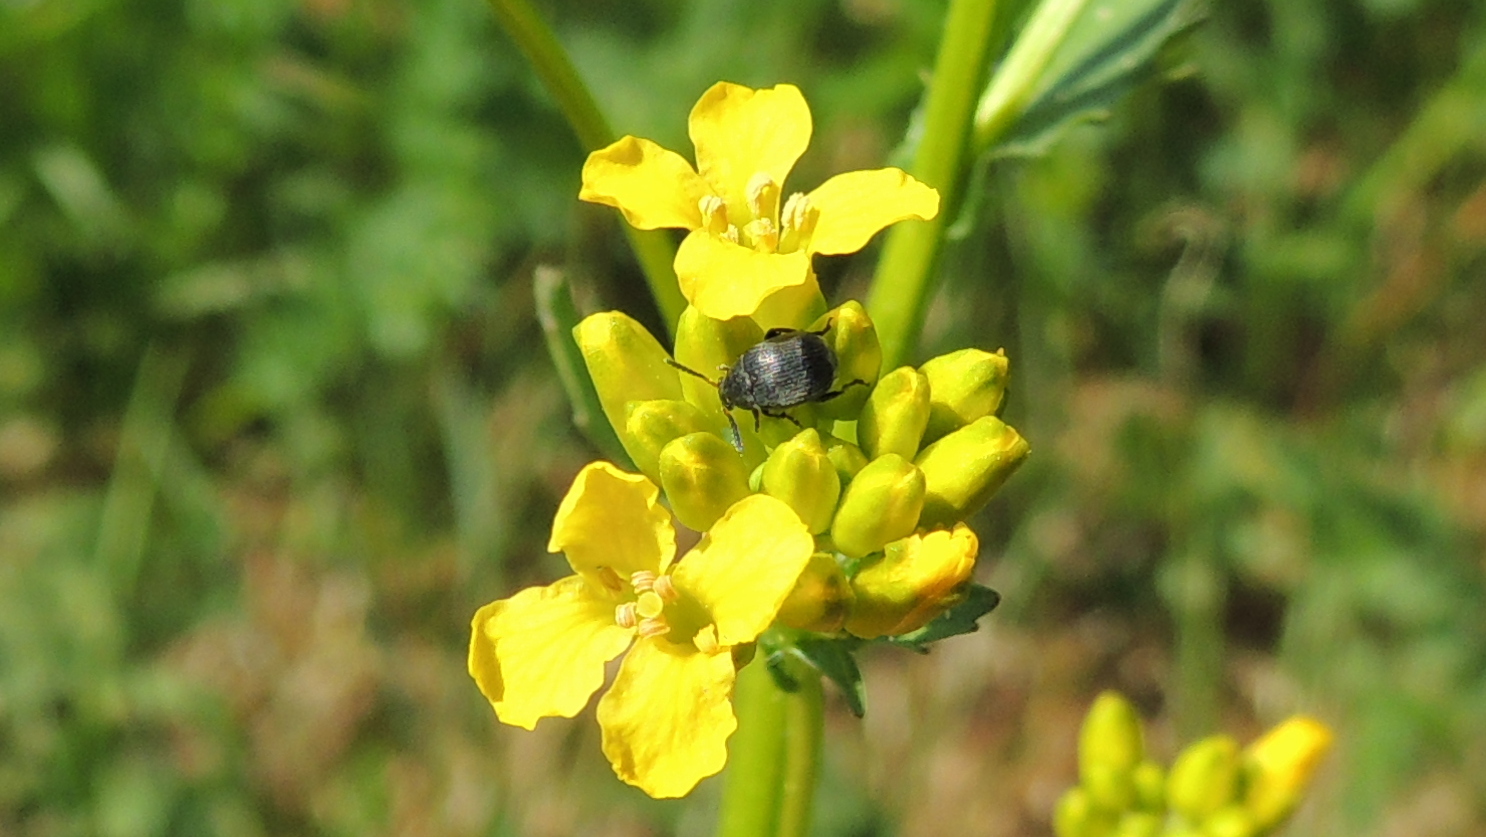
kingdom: Animalia
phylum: Arthropoda
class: Insecta
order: Coleoptera
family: Chrysomelidae
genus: Bruchus
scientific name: Bruchus loti
